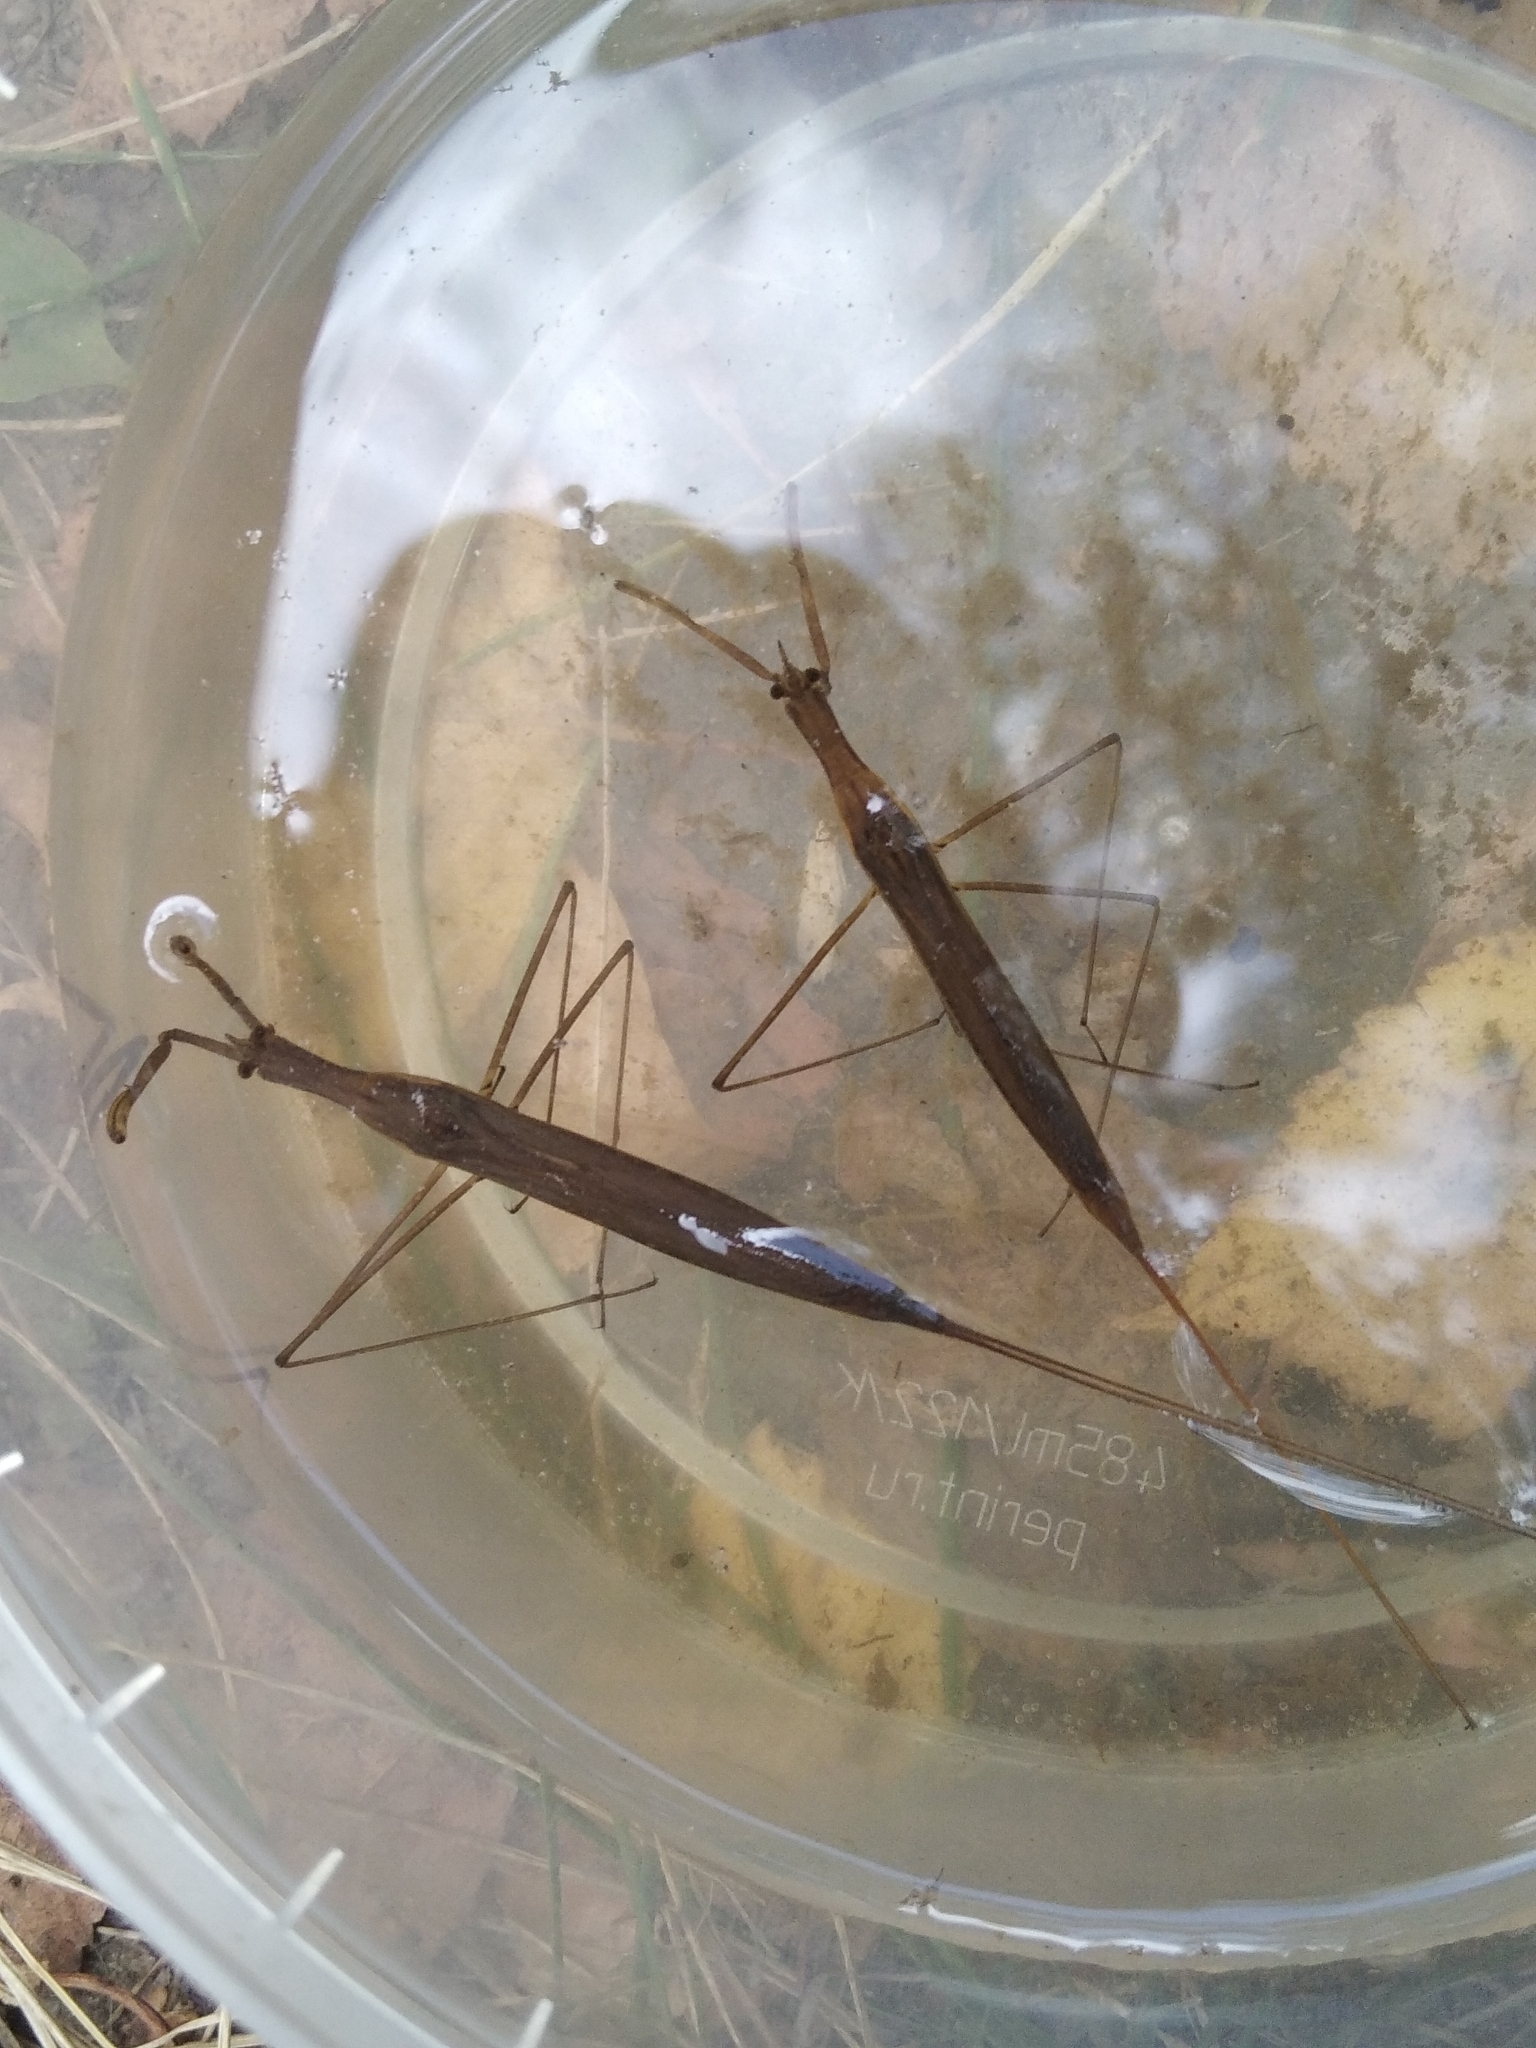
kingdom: Animalia
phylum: Arthropoda
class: Insecta
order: Hemiptera
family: Nepidae
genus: Ranatra
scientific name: Ranatra linearis
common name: Water stick insect
